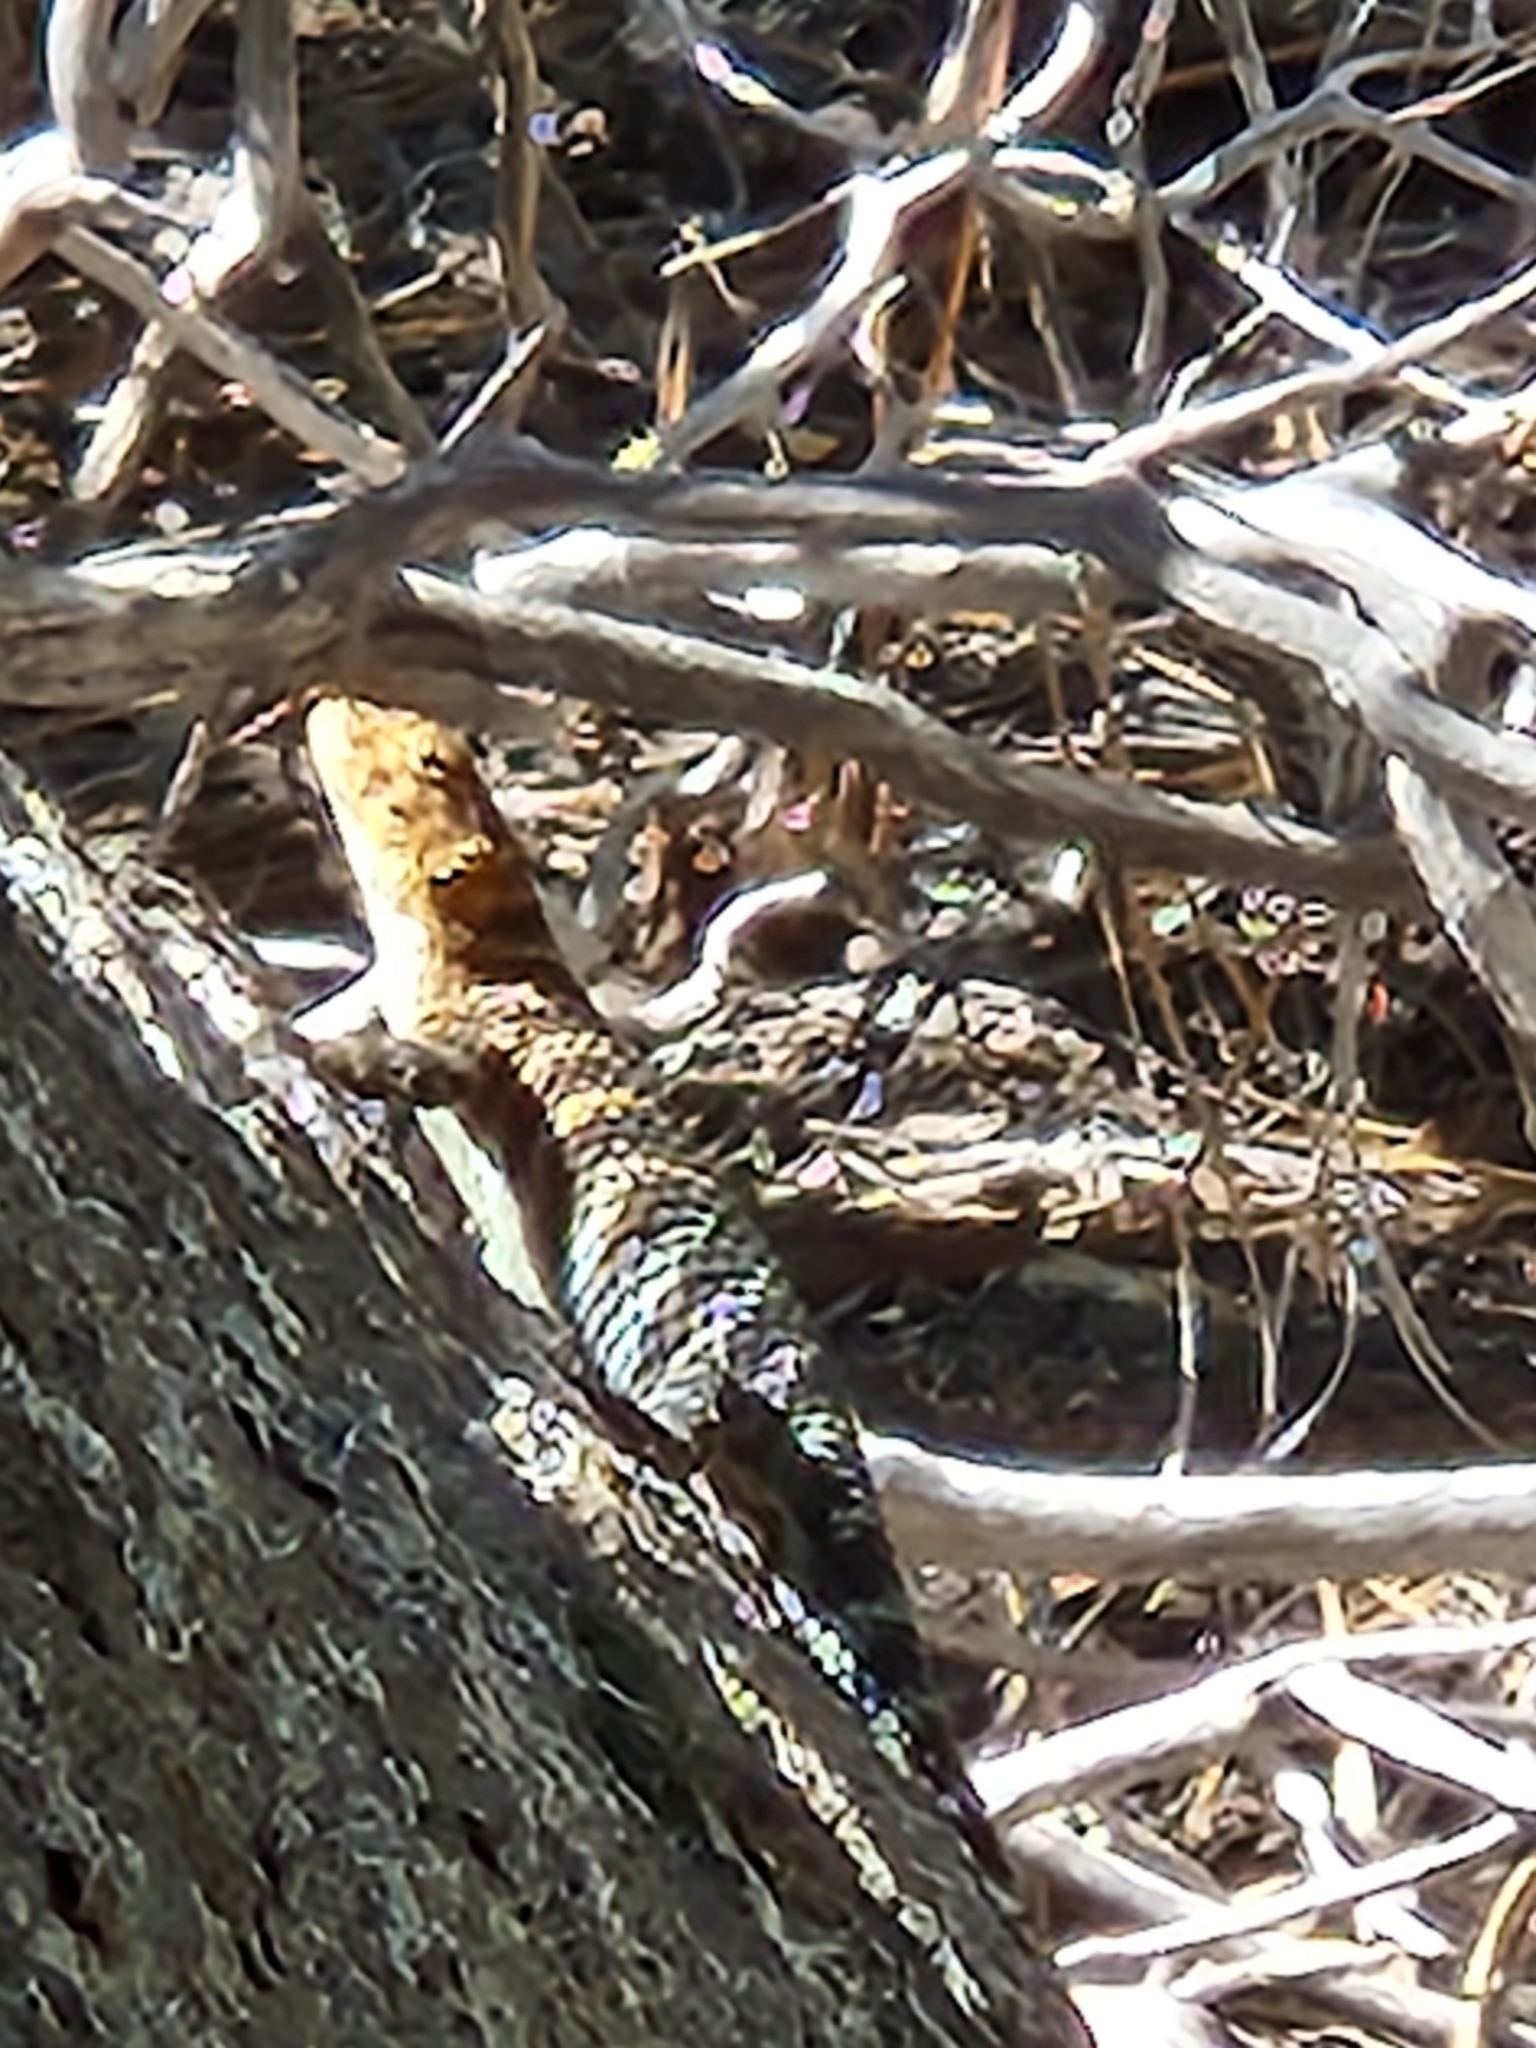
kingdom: Animalia
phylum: Chordata
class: Squamata
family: Phrynosomatidae
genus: Sceloporus
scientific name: Sceloporus orcutti
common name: Granite spiny lizard
